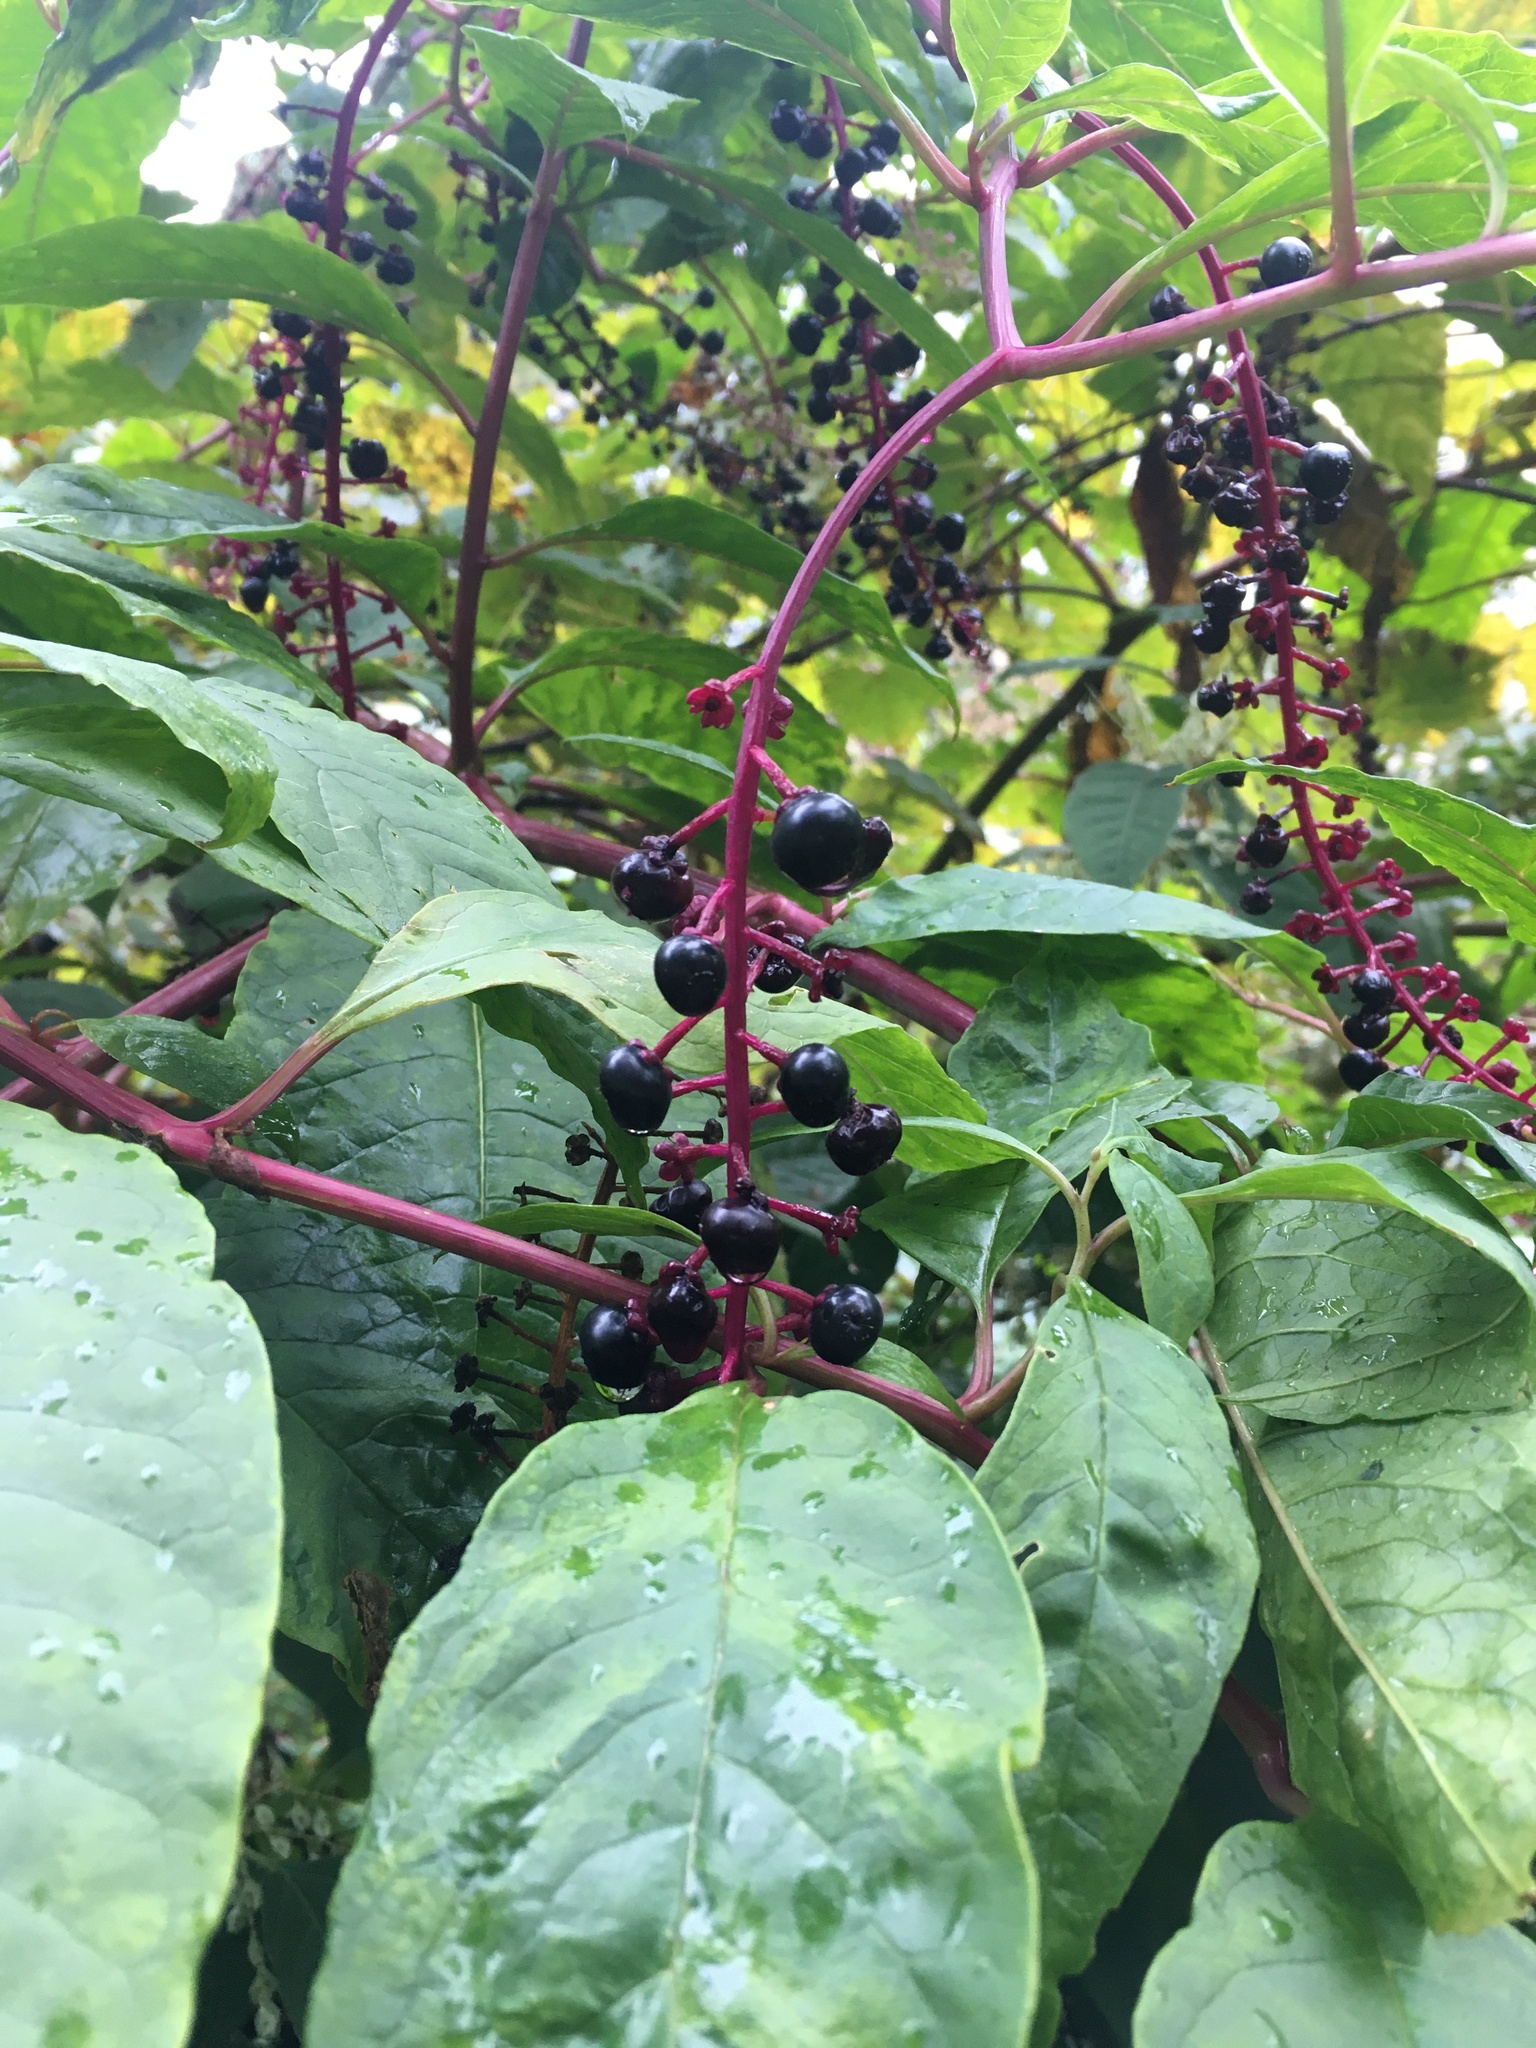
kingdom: Plantae
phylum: Tracheophyta
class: Magnoliopsida
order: Caryophyllales
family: Phytolaccaceae
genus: Phytolacca
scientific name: Phytolacca americana
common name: American pokeweed
